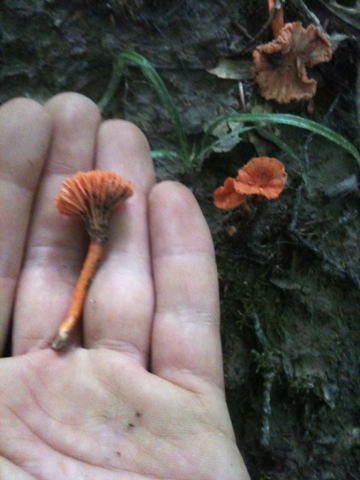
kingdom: Fungi
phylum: Basidiomycota
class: Agaricomycetes
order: Cantharellales
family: Hydnaceae
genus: Cantharellus
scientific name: Cantharellus cinnabarinus
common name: Cinnabar chanterelle
